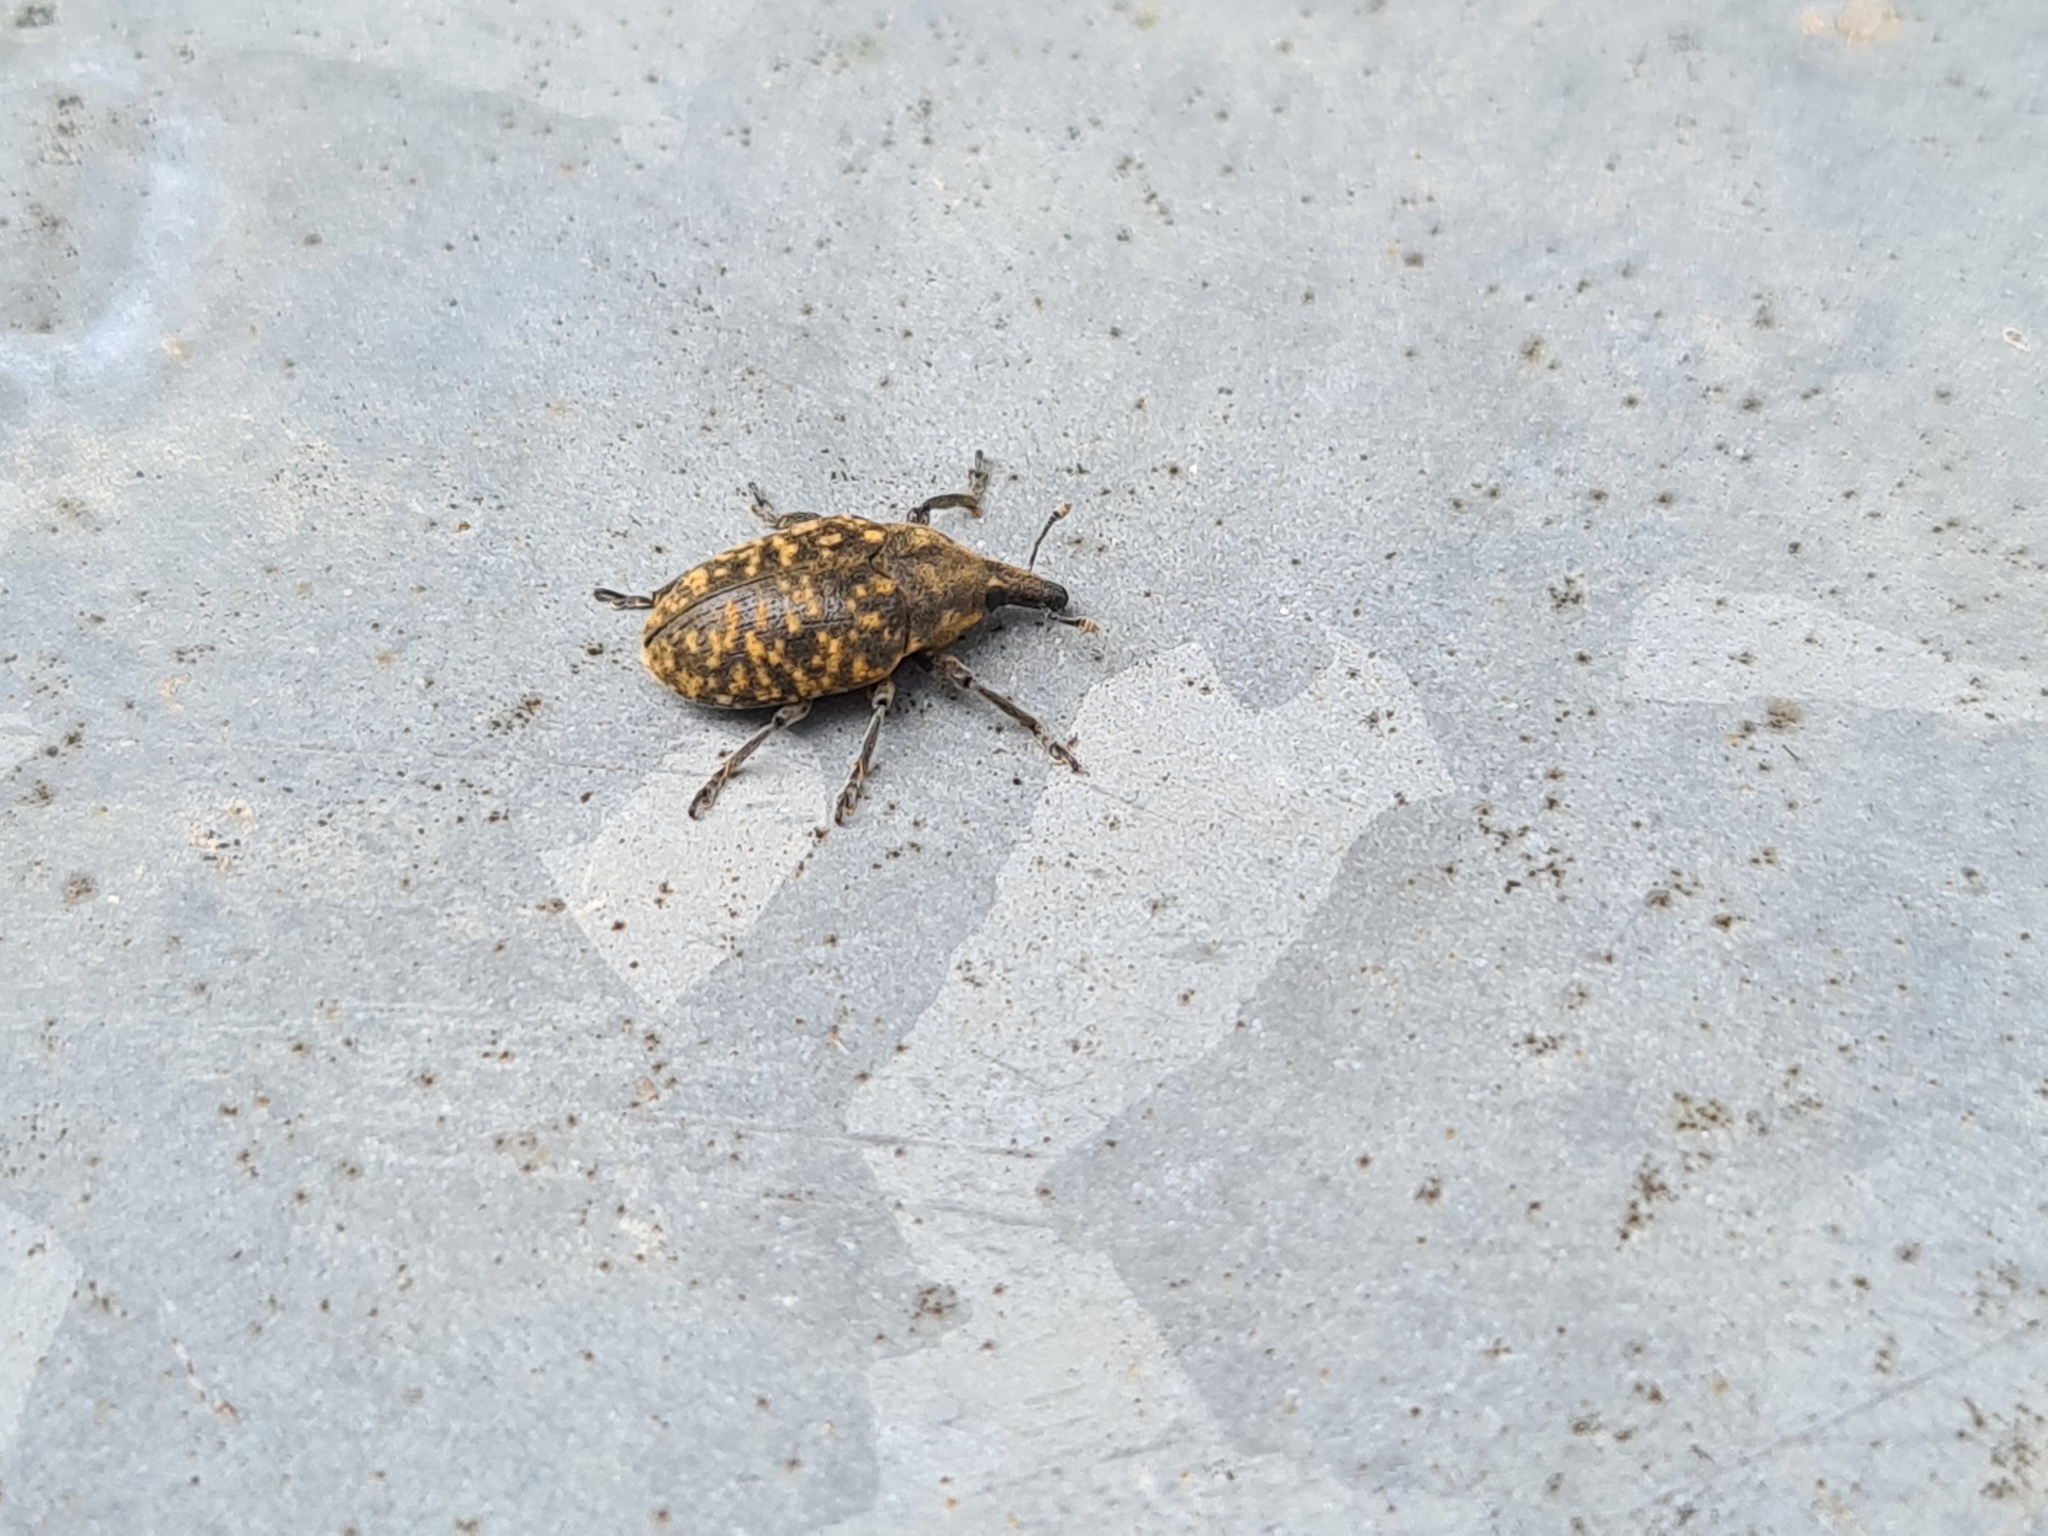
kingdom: Animalia
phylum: Arthropoda
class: Insecta
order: Coleoptera
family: Curculionidae
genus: Larinus
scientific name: Larinus turbinatus
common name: Weevil
